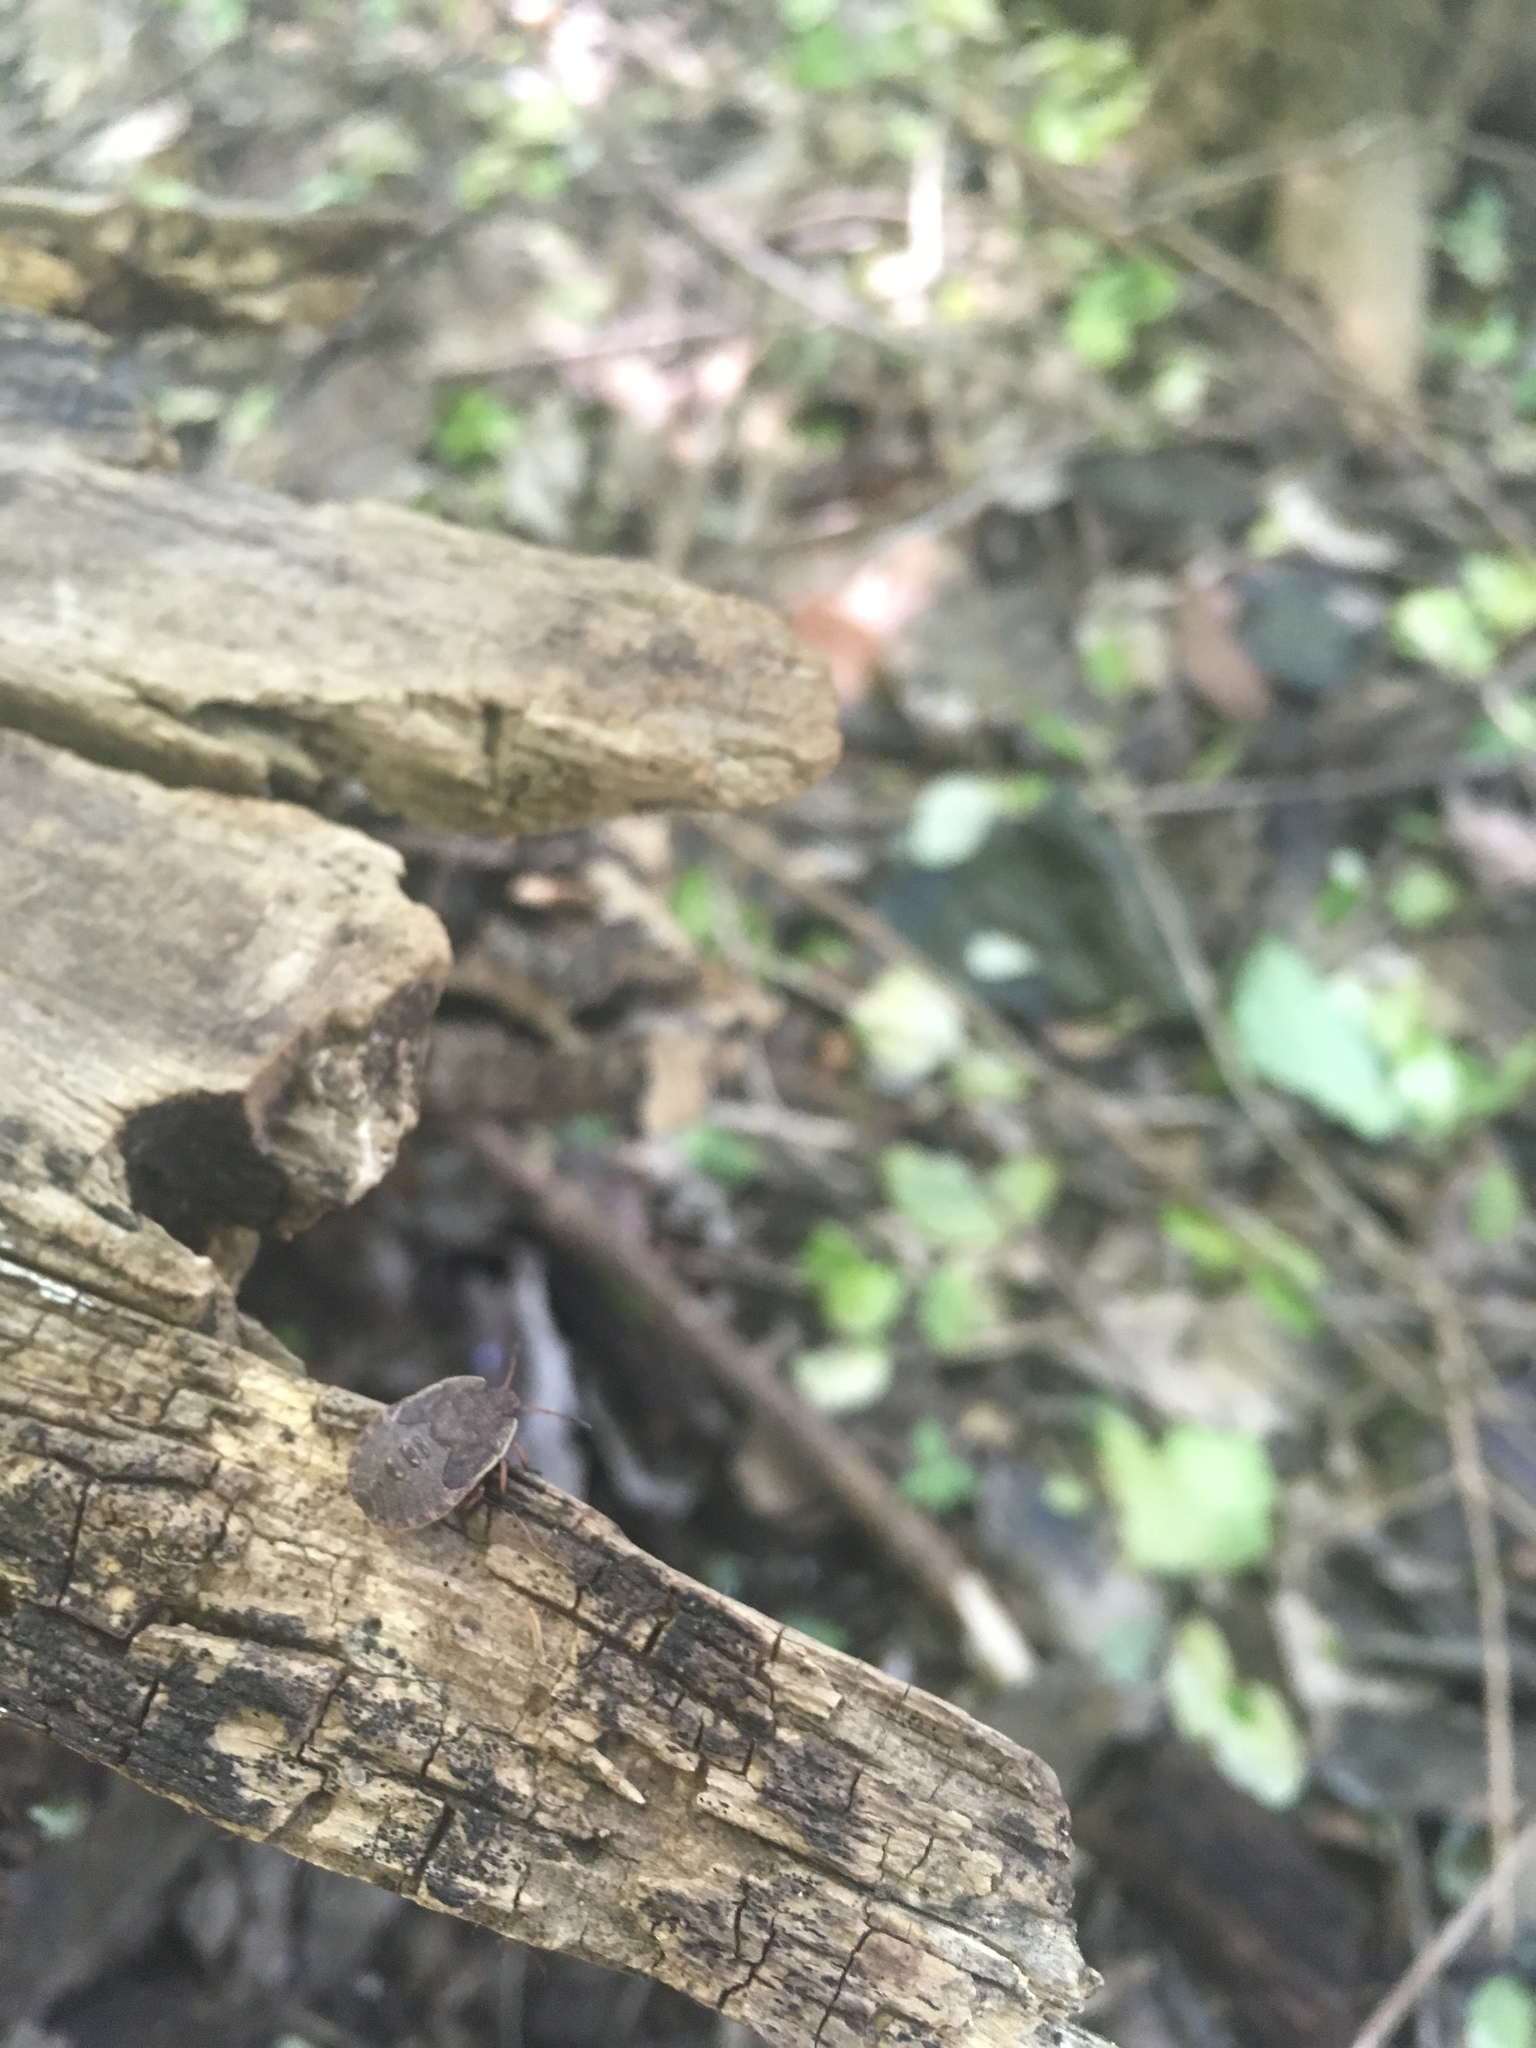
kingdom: Animalia
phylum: Arthropoda
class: Insecta
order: Hemiptera
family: Pentatomidae
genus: Menecles
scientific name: Menecles insertus
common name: Elf shoe stink bug
